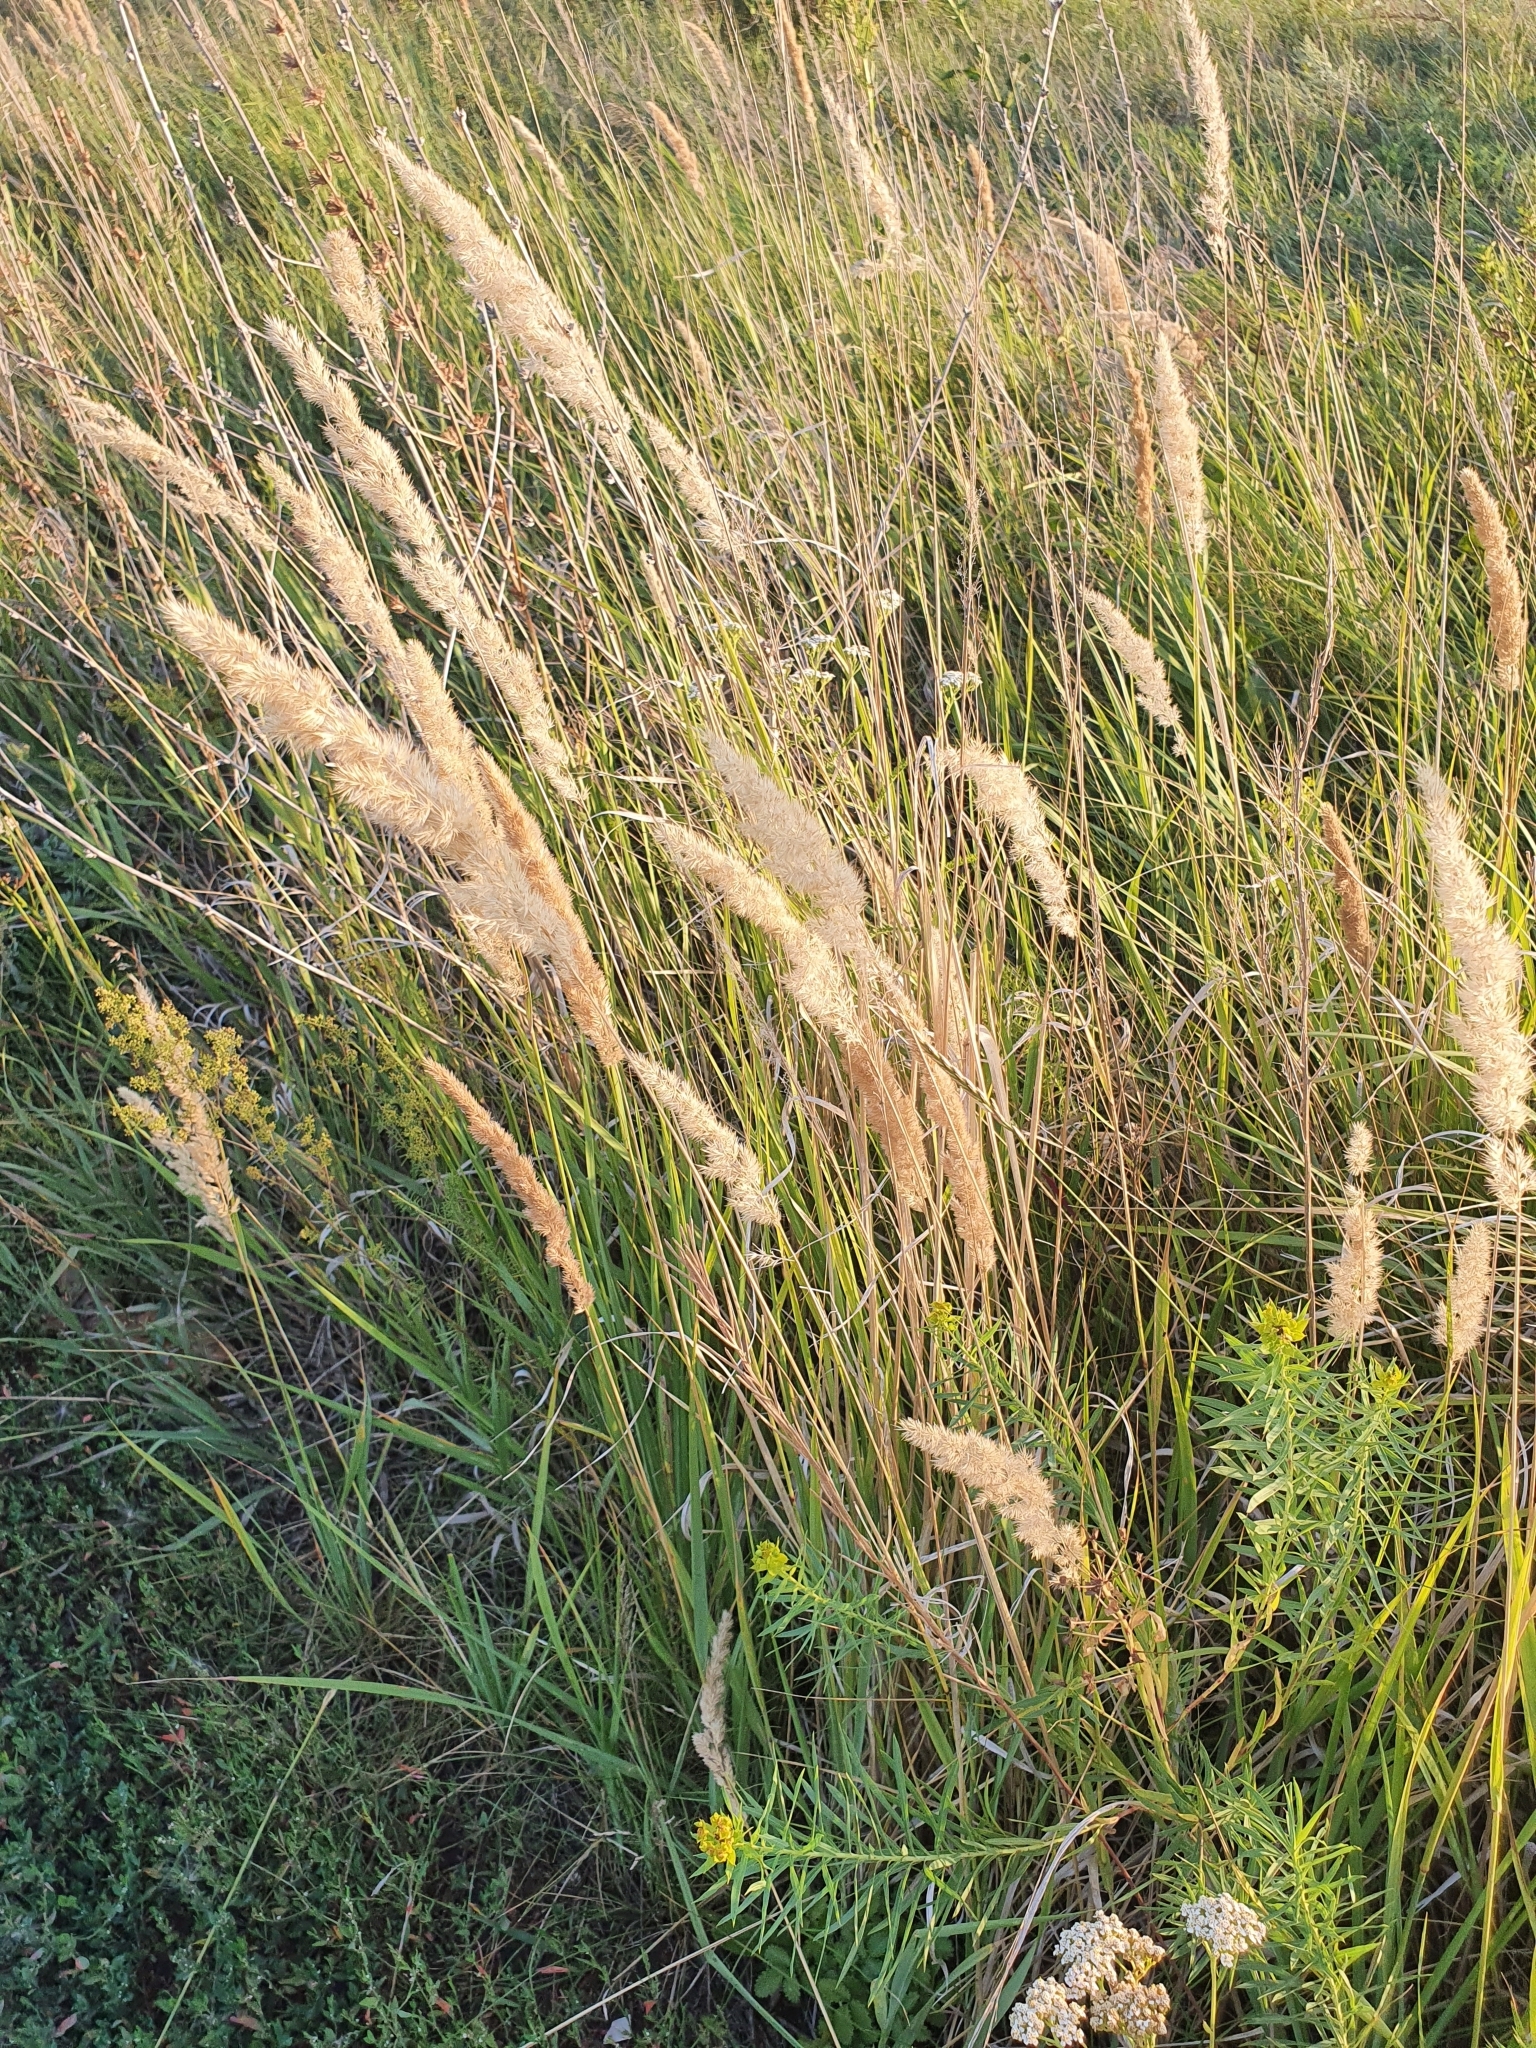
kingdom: Plantae
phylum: Tracheophyta
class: Liliopsida
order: Poales
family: Poaceae
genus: Calamagrostis
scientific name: Calamagrostis epigejos
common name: Wood small-reed
